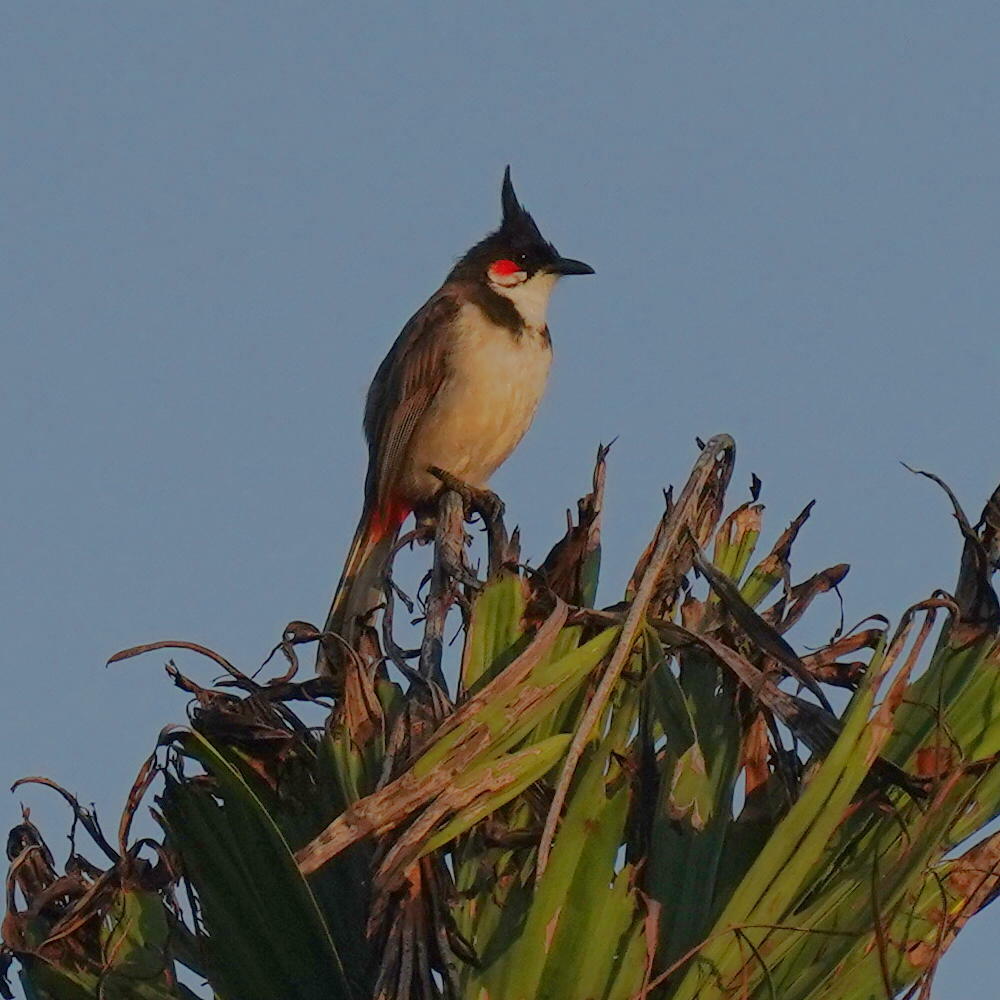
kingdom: Animalia
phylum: Chordata
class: Aves
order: Passeriformes
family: Pycnonotidae
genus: Pycnonotus
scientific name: Pycnonotus jocosus
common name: Red-whiskered bulbul
